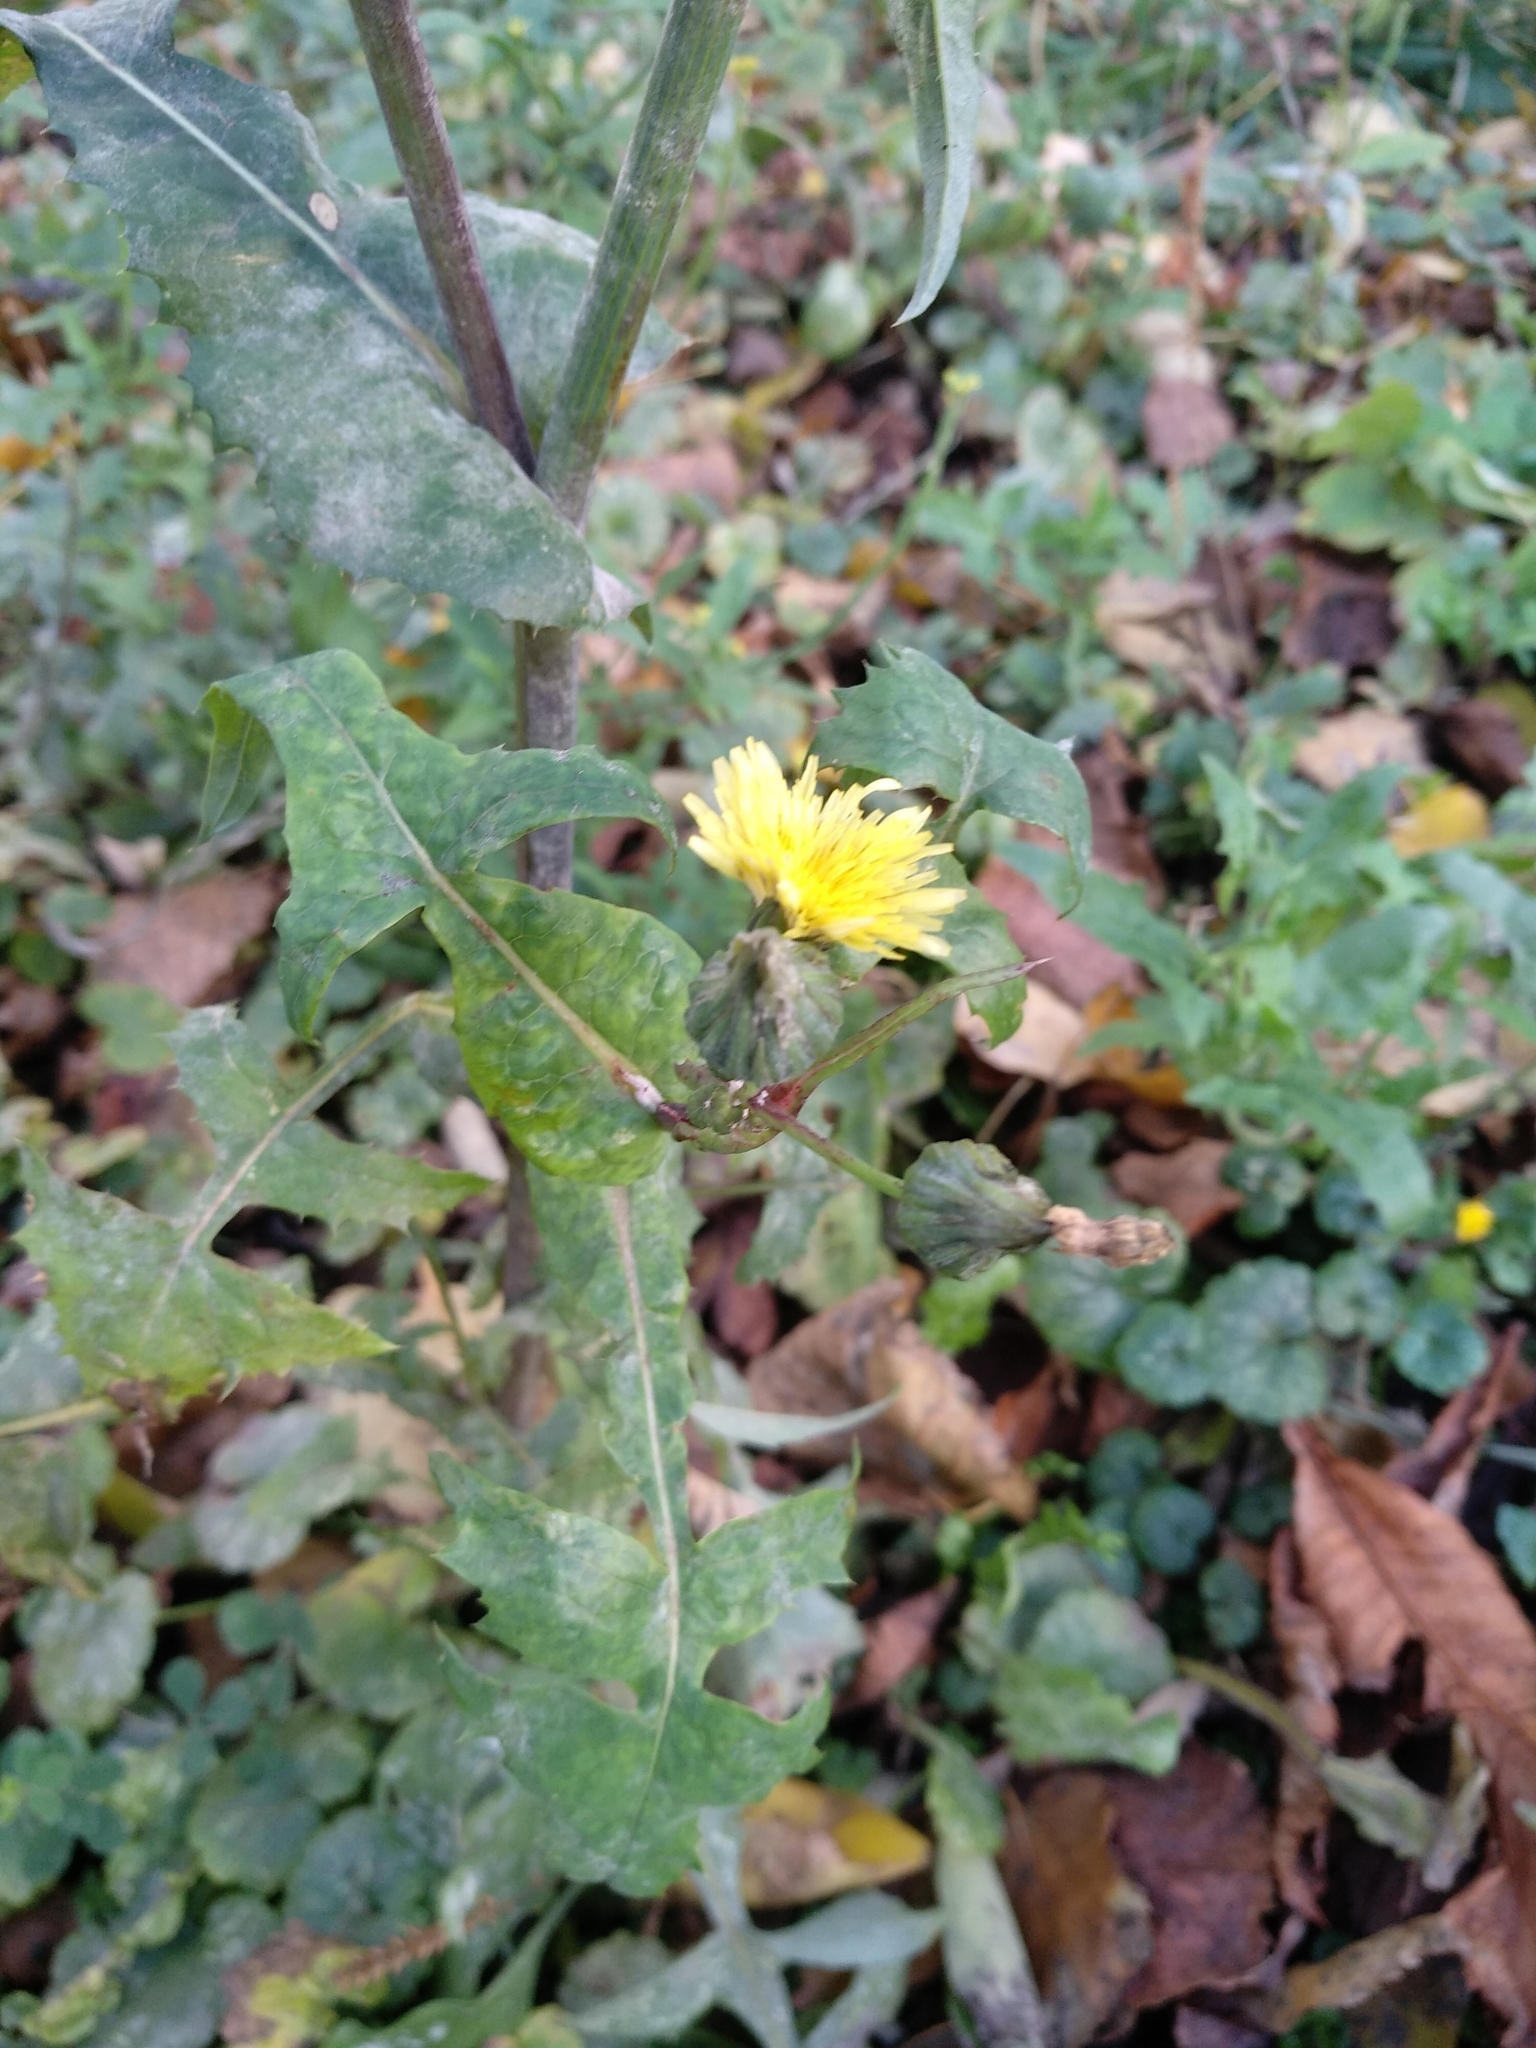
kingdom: Plantae
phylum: Tracheophyta
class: Magnoliopsida
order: Asterales
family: Asteraceae
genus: Sonchus
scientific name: Sonchus oleraceus
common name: Common sowthistle
